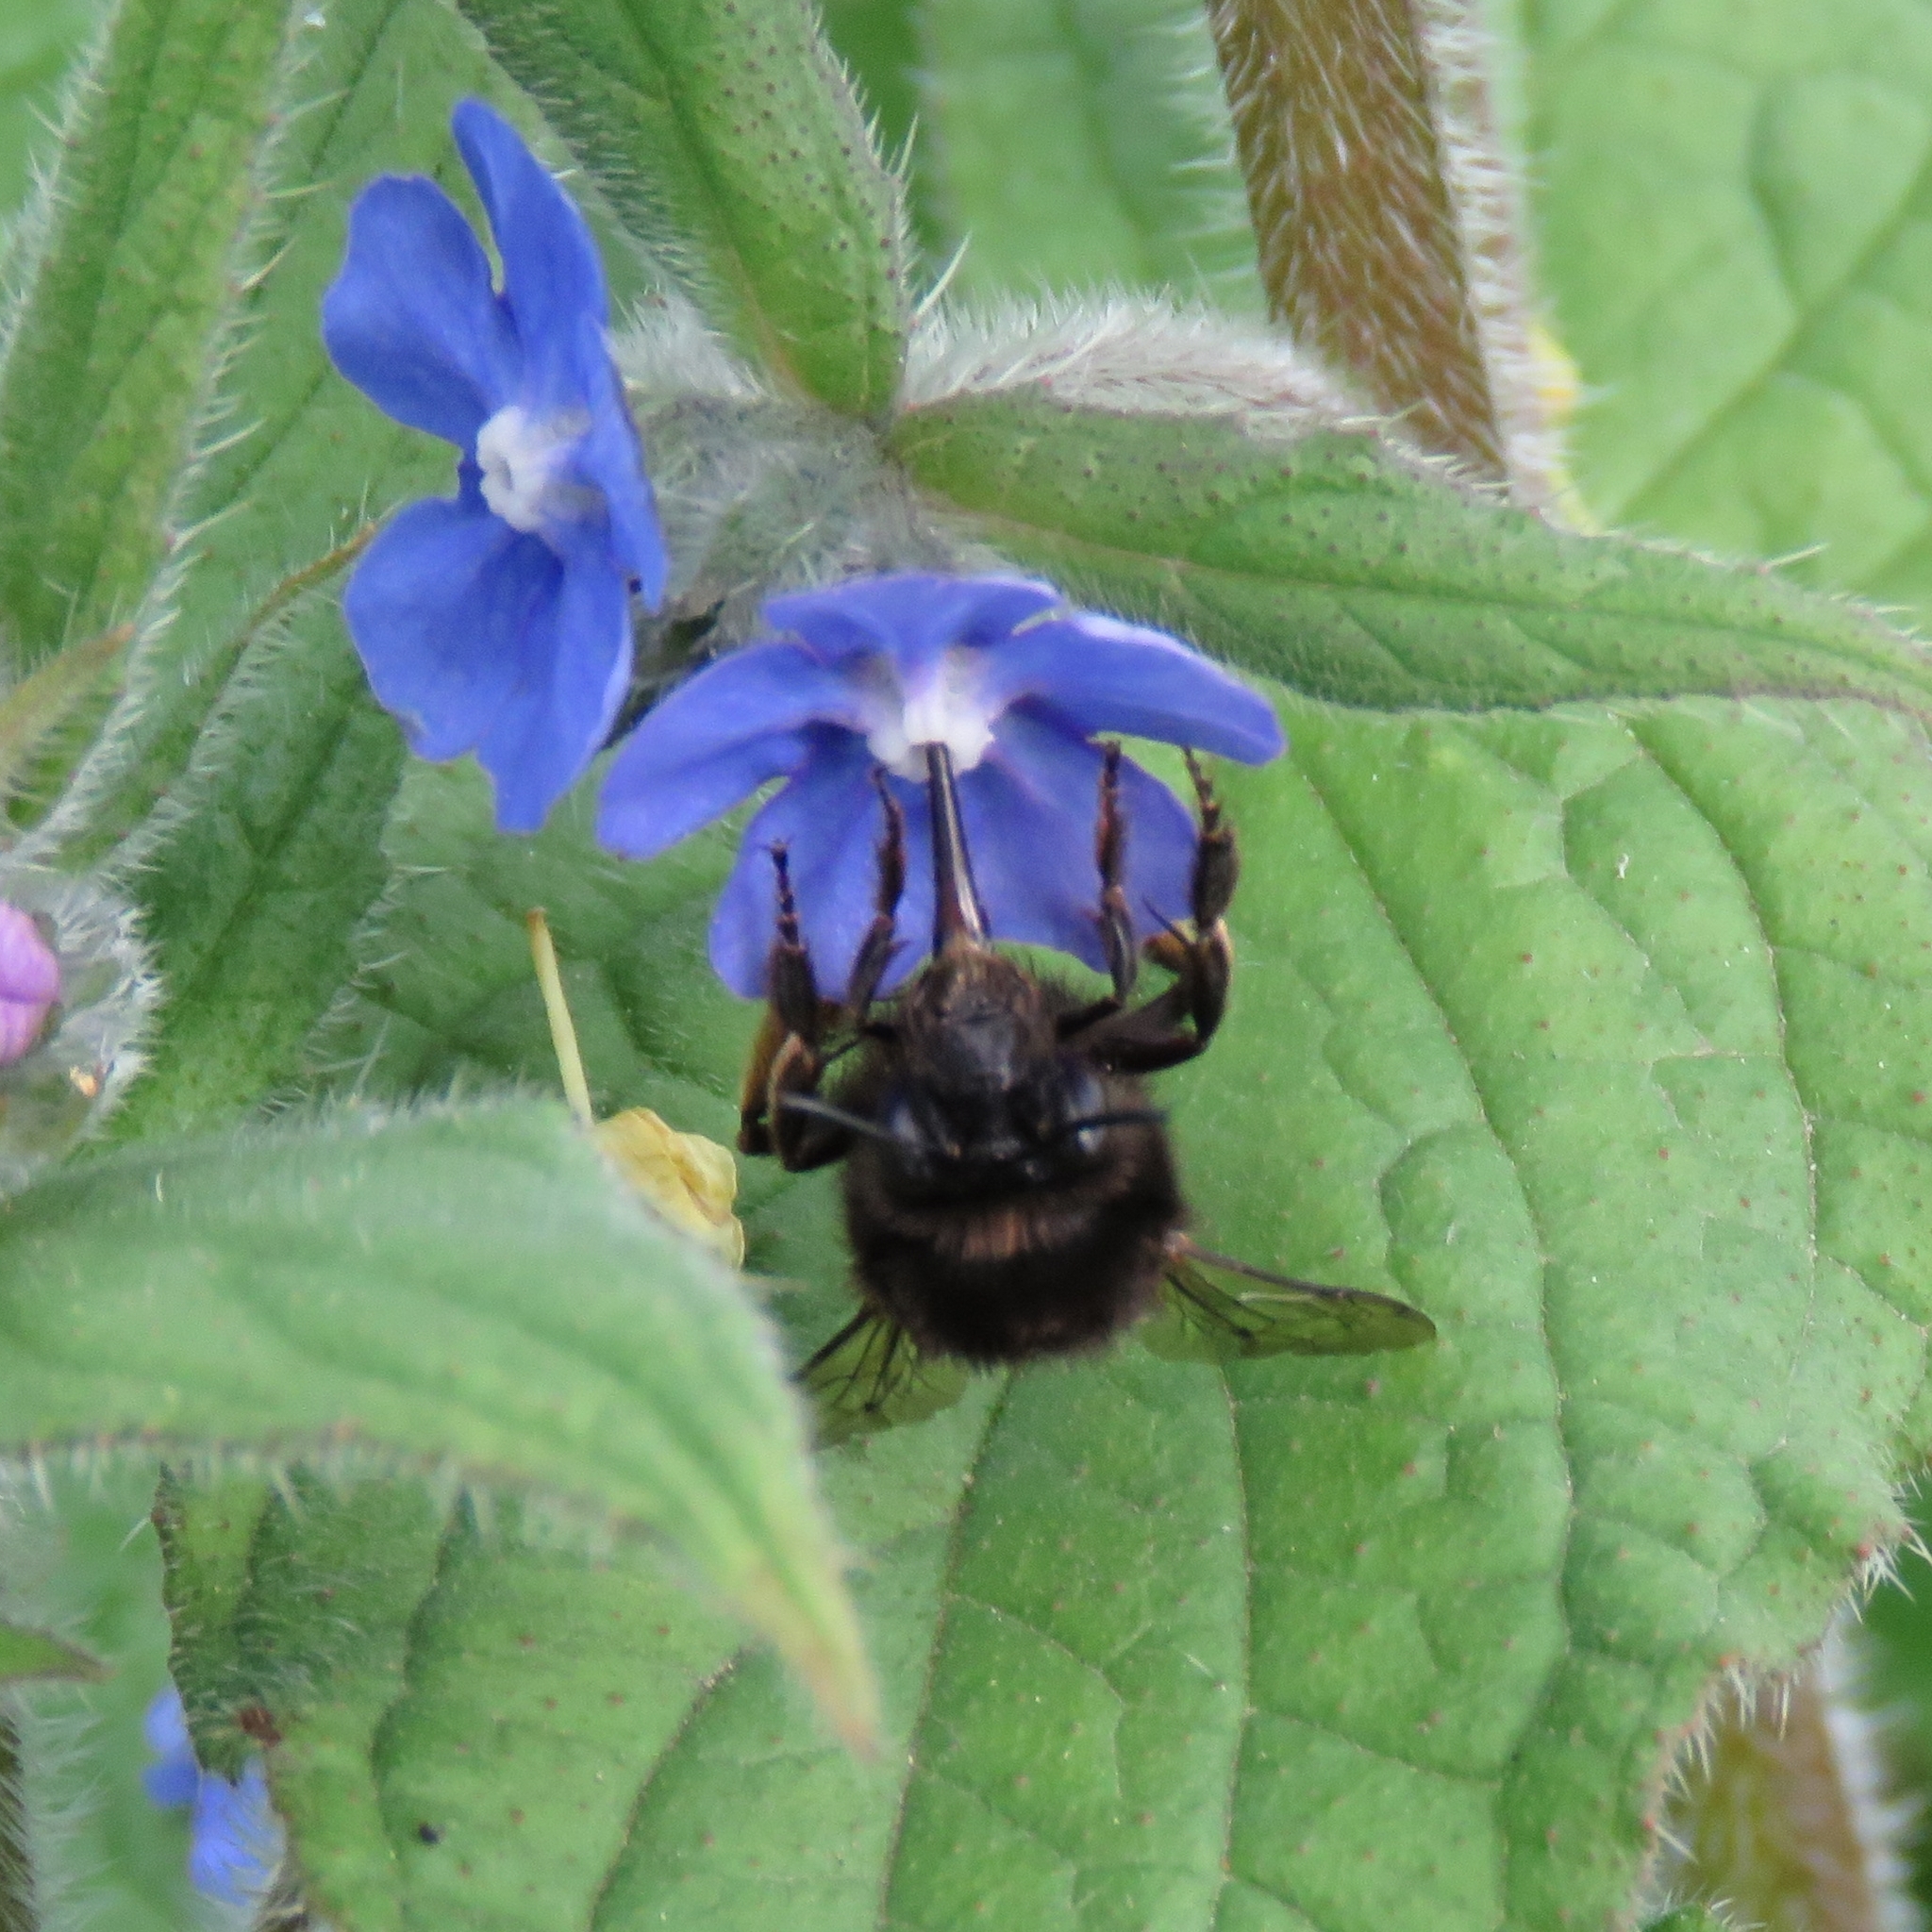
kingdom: Animalia
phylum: Arthropoda
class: Insecta
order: Hymenoptera
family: Apidae
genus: Anthophora
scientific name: Anthophora plumipes
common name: Hairy-footed flower bee
